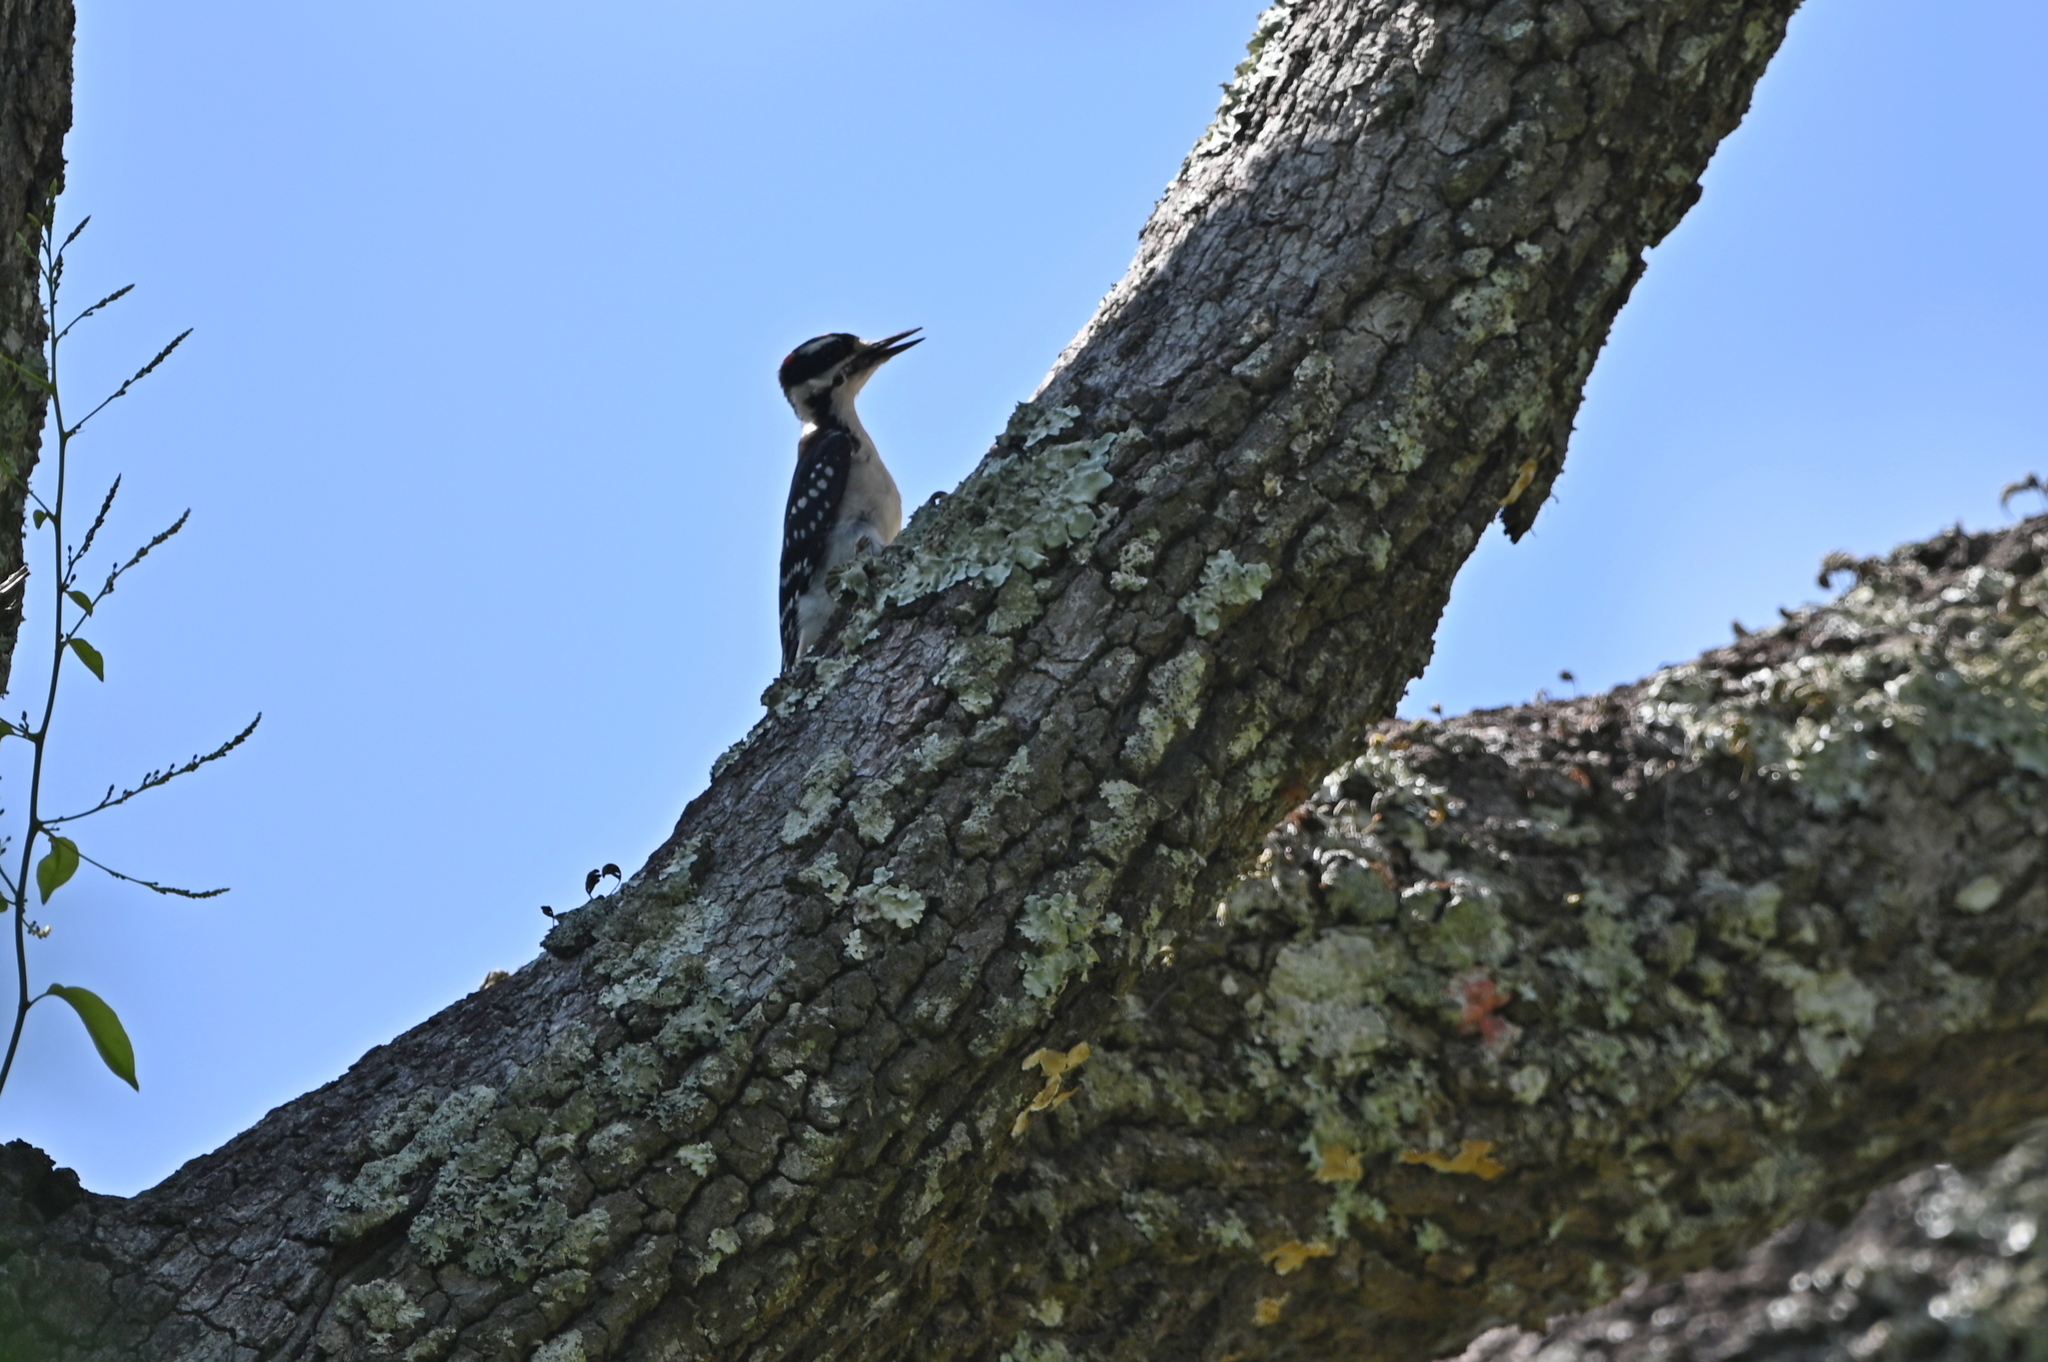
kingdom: Animalia
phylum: Chordata
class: Aves
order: Piciformes
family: Picidae
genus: Leuconotopicus
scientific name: Leuconotopicus villosus
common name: Hairy woodpecker
